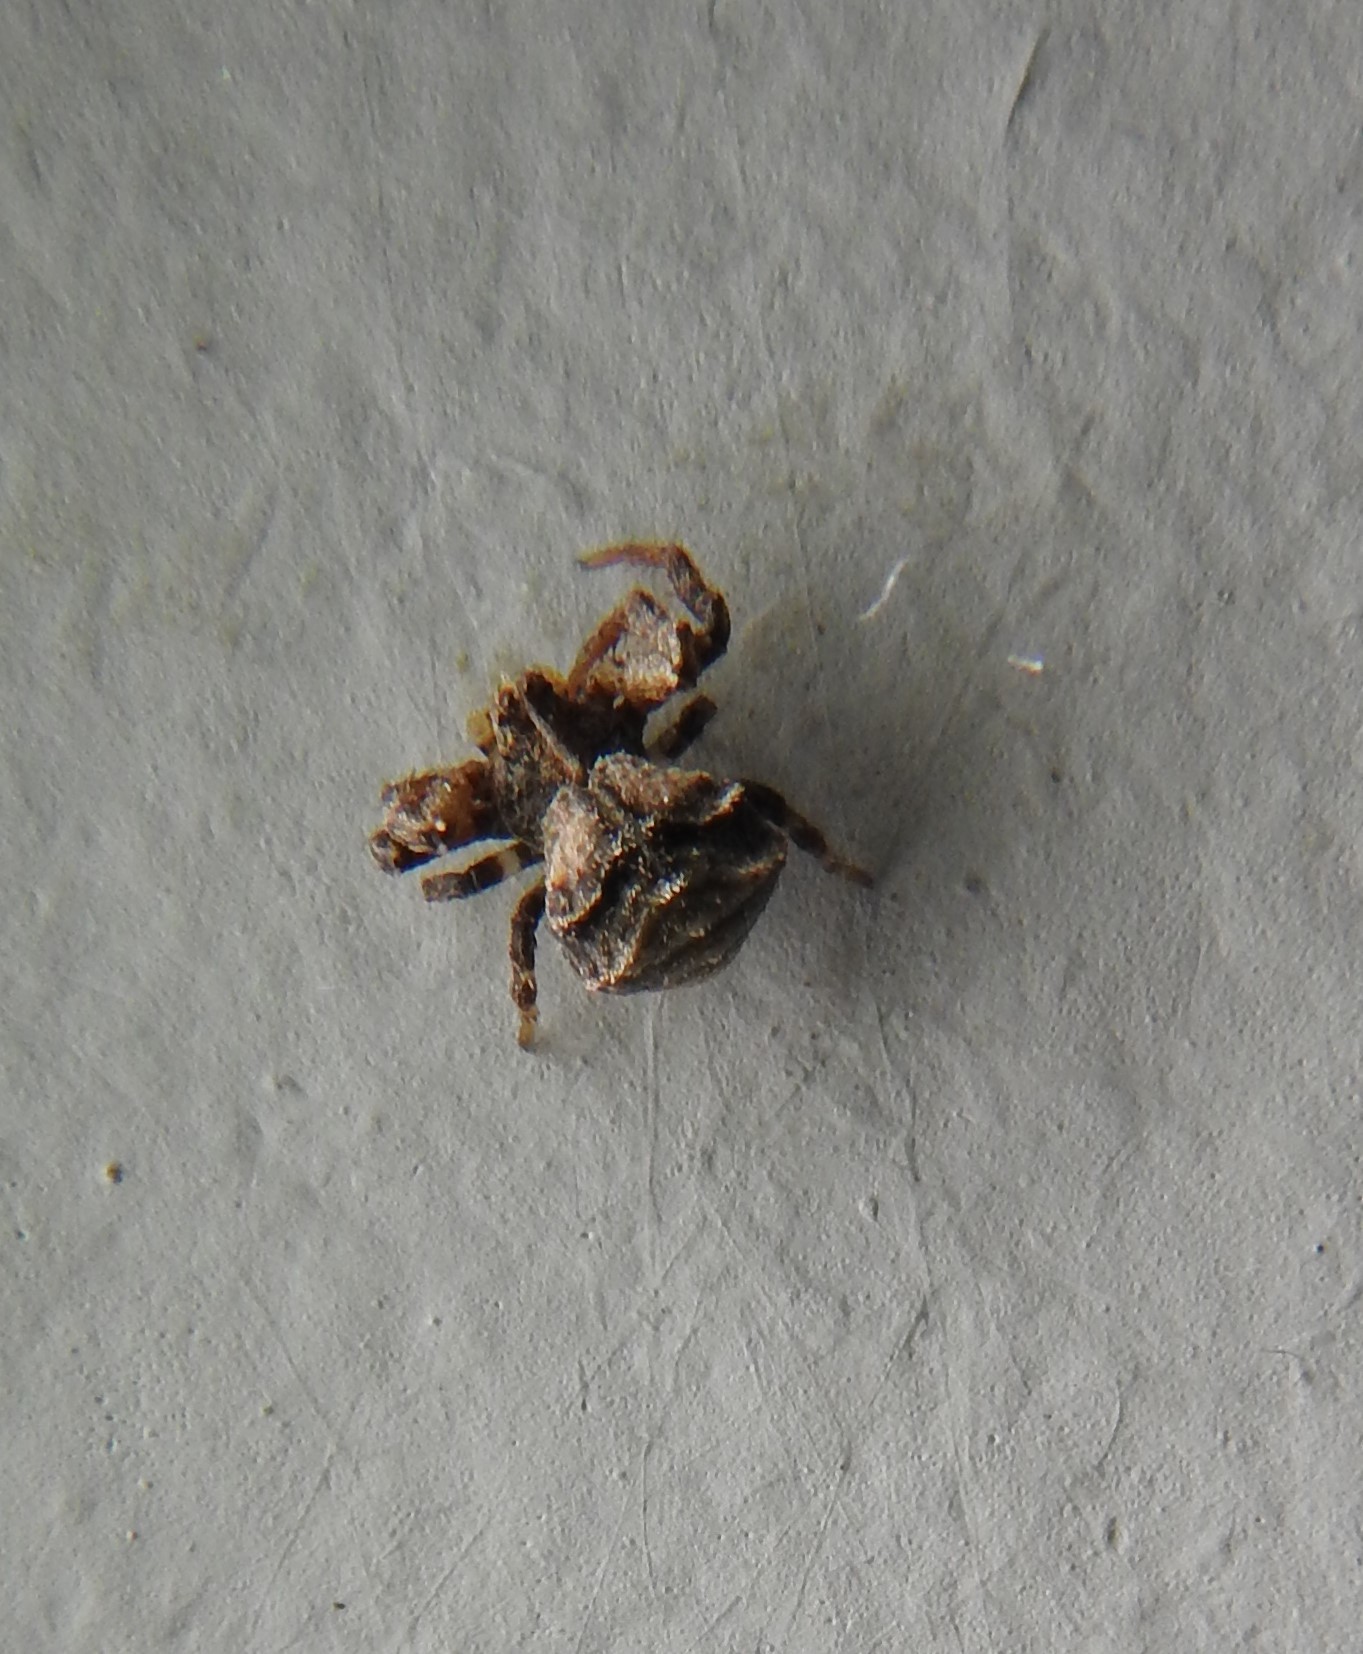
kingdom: Animalia
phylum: Arthropoda
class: Arachnida
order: Araneae
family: Thomisidae
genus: Coenypha
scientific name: Coenypha ditissima
